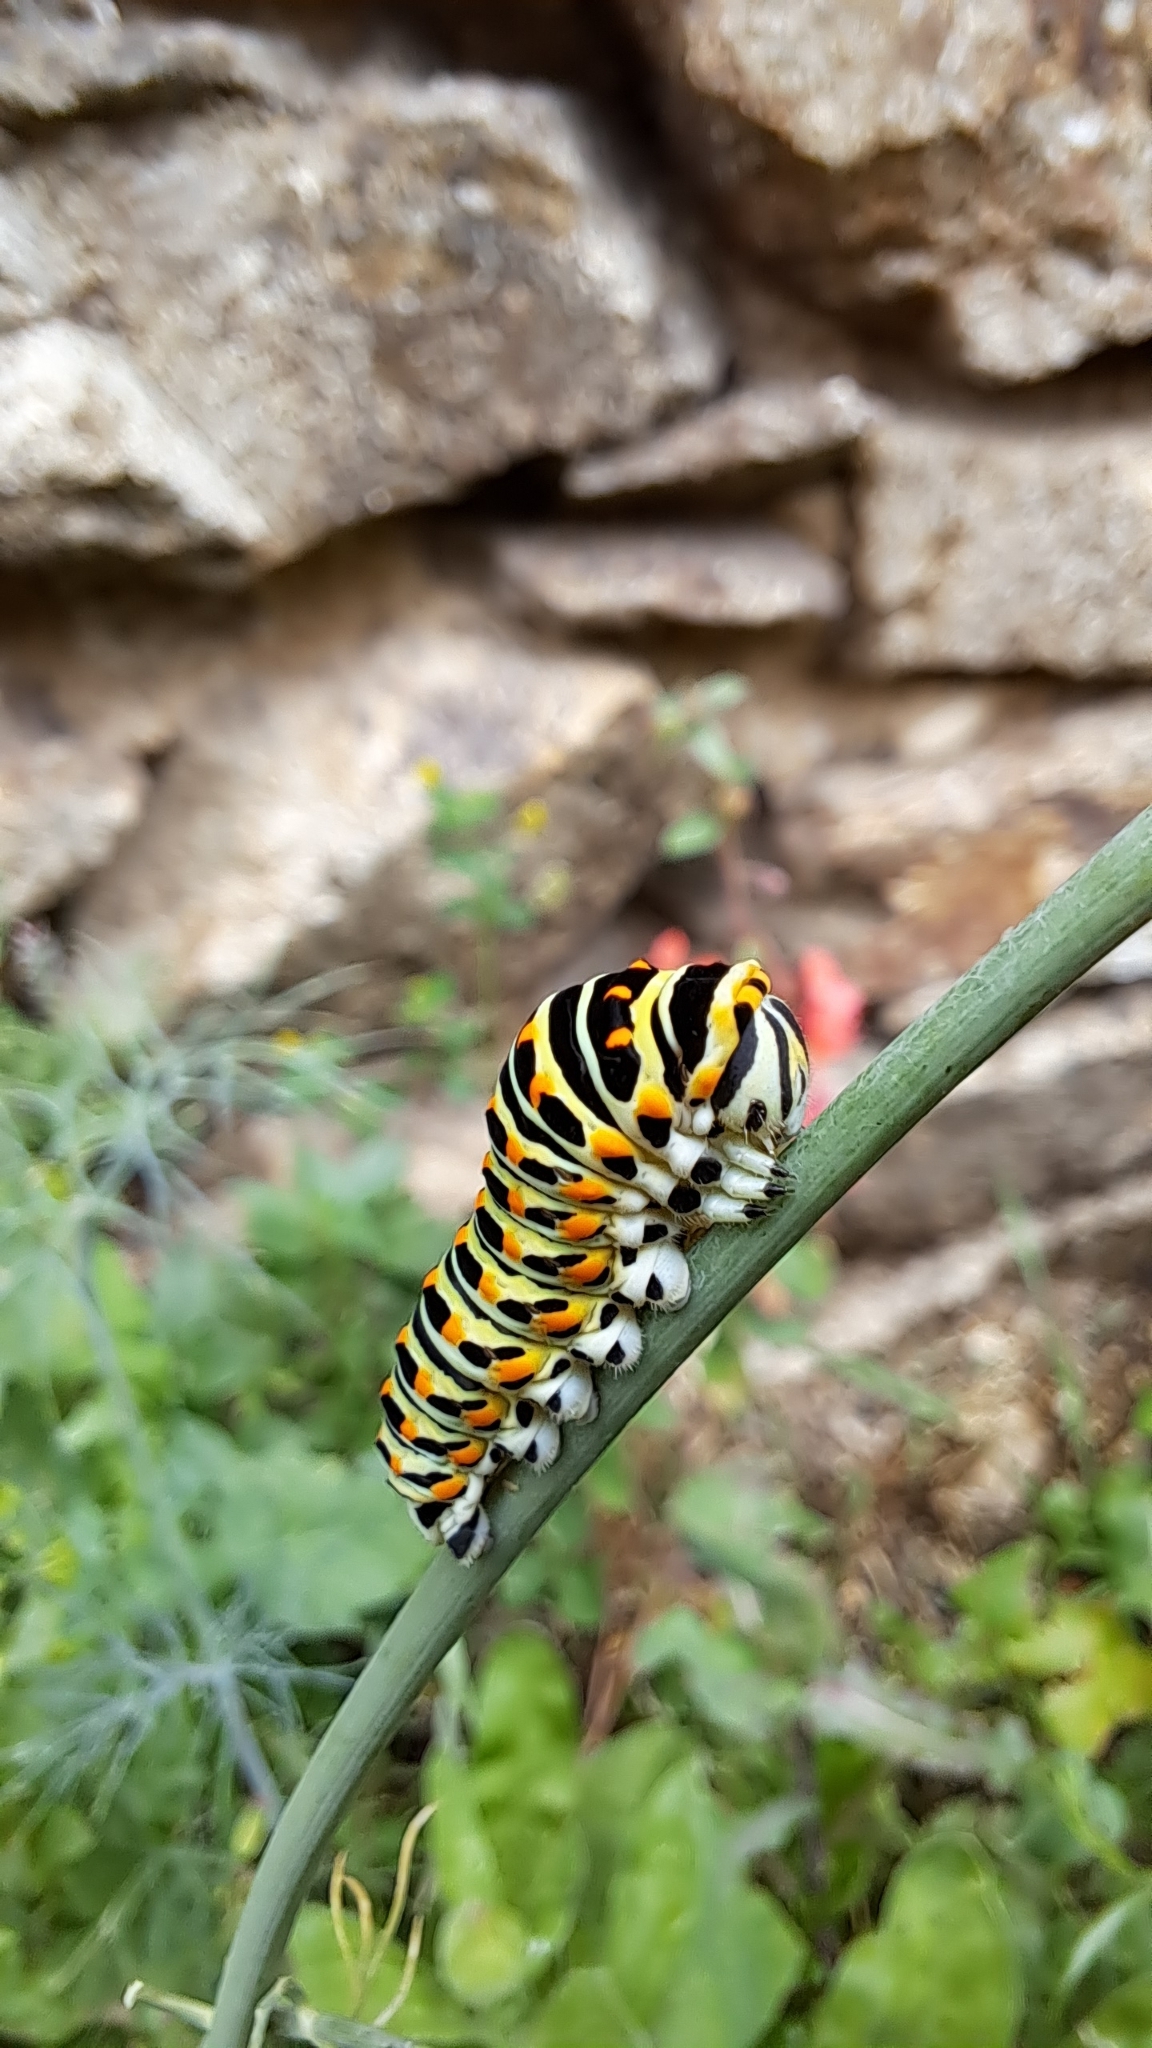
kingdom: Animalia
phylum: Arthropoda
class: Insecta
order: Lepidoptera
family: Papilionidae
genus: Papilio
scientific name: Papilio machaon
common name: Swallowtail
